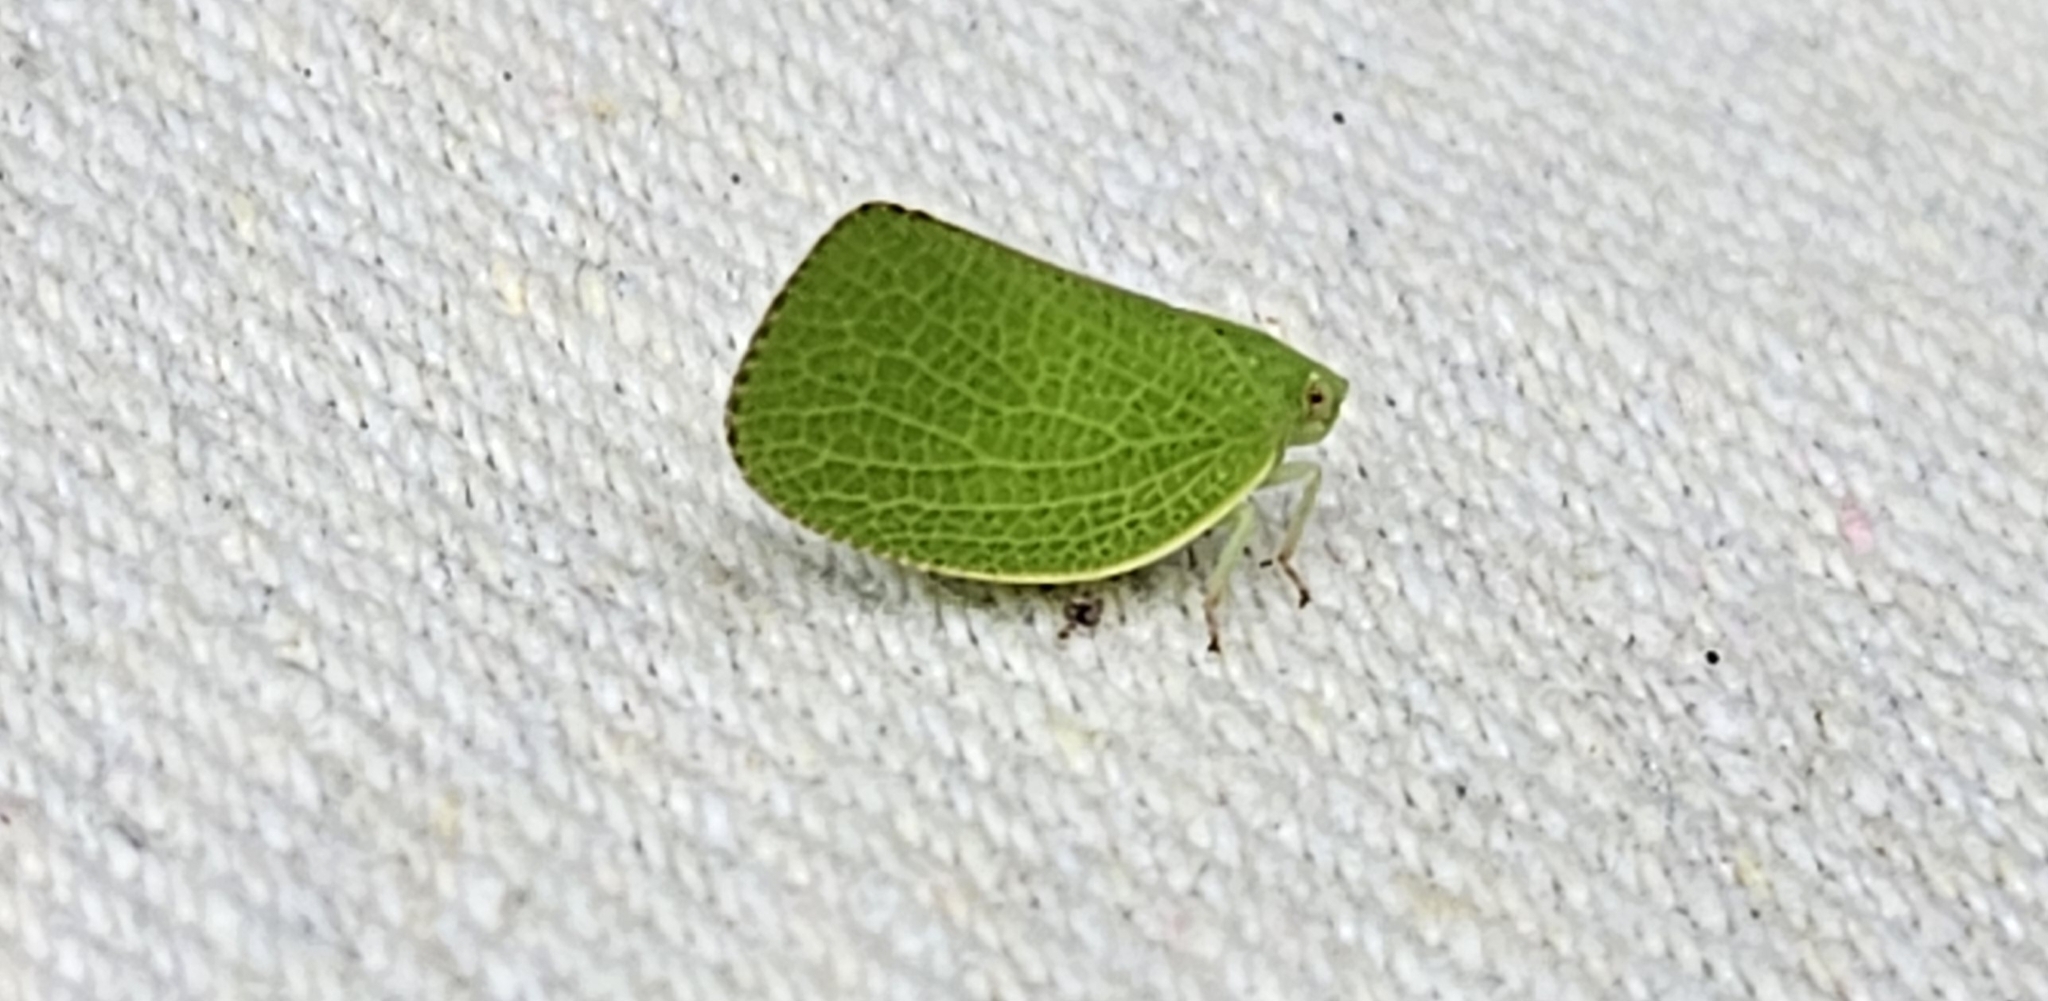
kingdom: Animalia
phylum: Arthropoda
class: Insecta
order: Hemiptera
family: Acanaloniidae
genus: Acanalonia
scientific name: Acanalonia conica
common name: Green cone-headed planthopper
